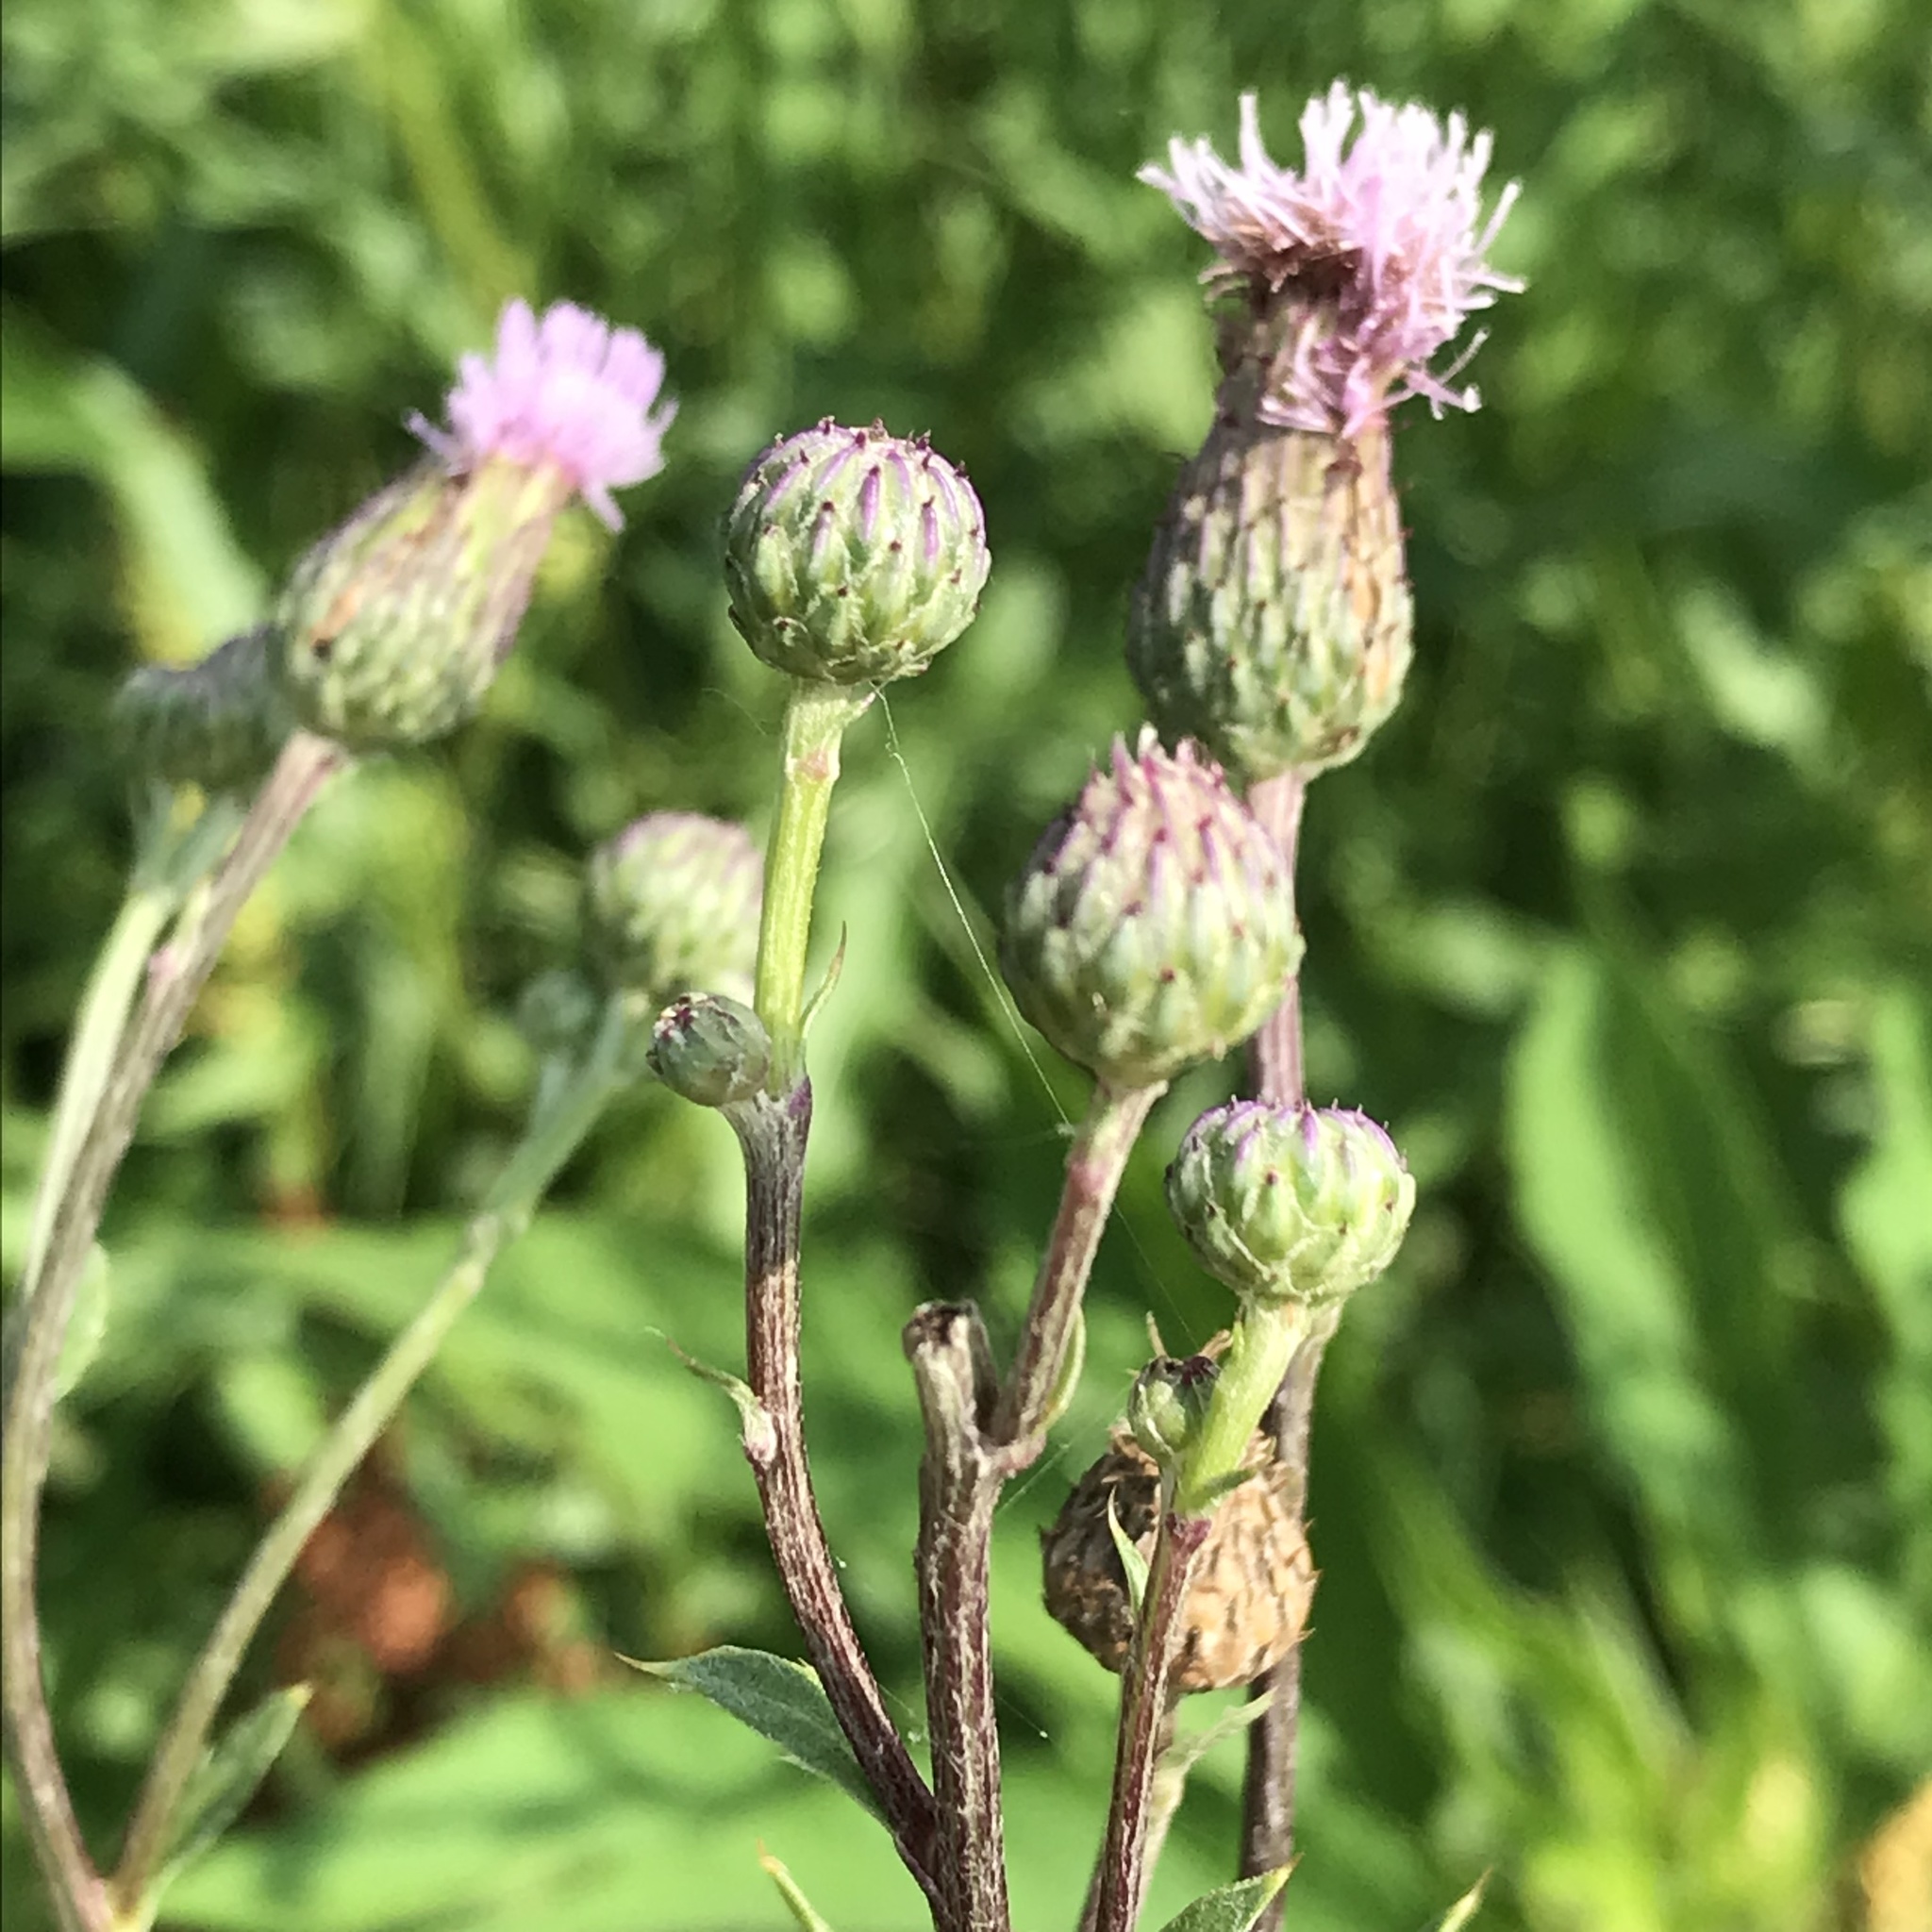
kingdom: Plantae
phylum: Tracheophyta
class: Magnoliopsida
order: Asterales
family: Asteraceae
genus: Cirsium
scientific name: Cirsium arvense
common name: Creeping thistle
